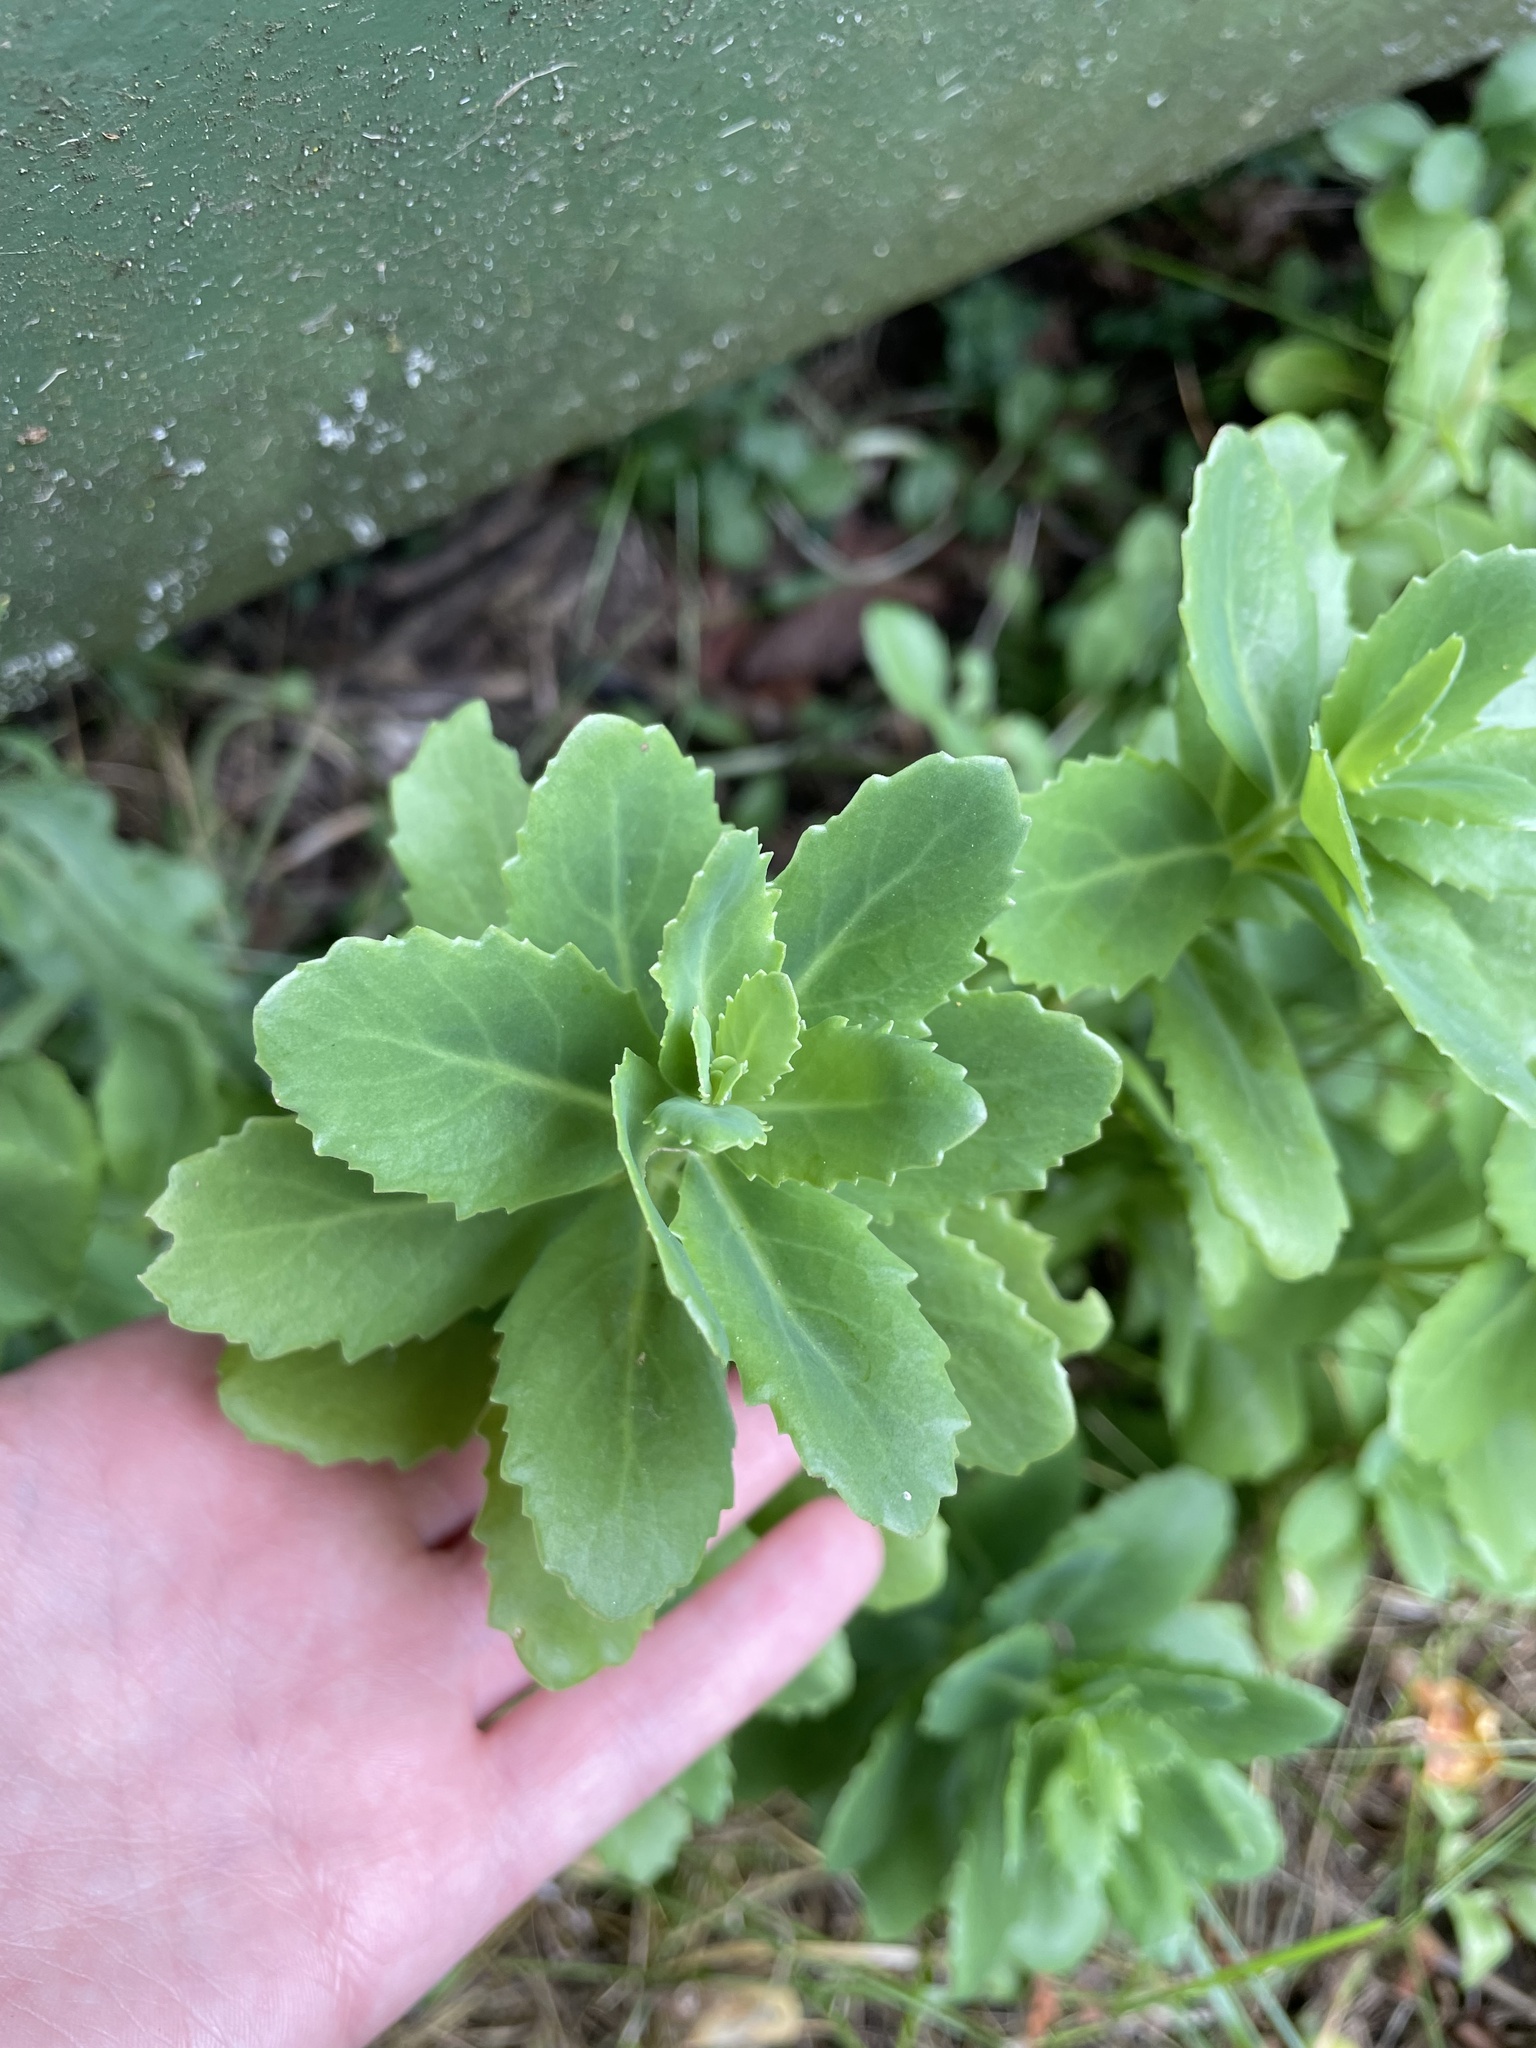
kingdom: Plantae
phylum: Tracheophyta
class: Magnoliopsida
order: Saxifragales
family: Crassulaceae
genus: Hylotelephium
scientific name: Hylotelephium telephium
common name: Live-forever
